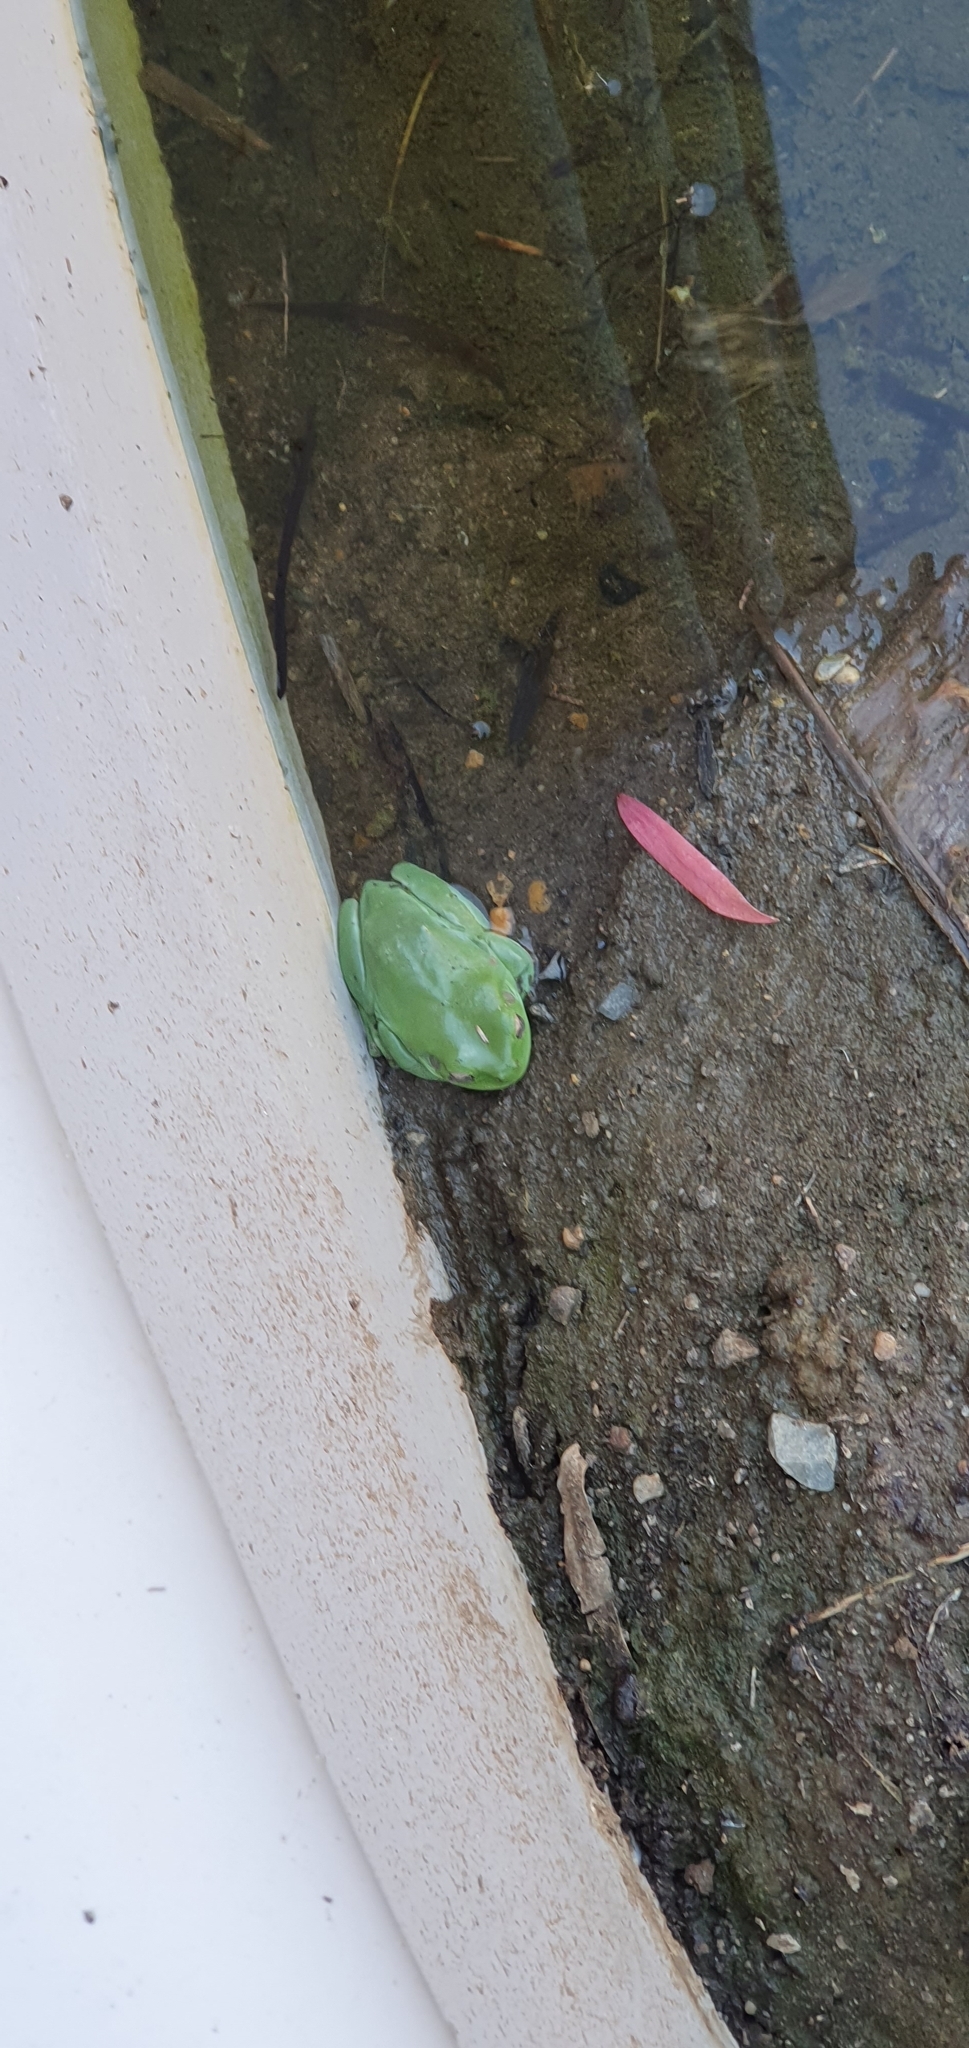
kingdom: Animalia
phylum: Chordata
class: Amphibia
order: Anura
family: Pelodryadidae
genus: Ranoidea
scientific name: Ranoidea caerulea
